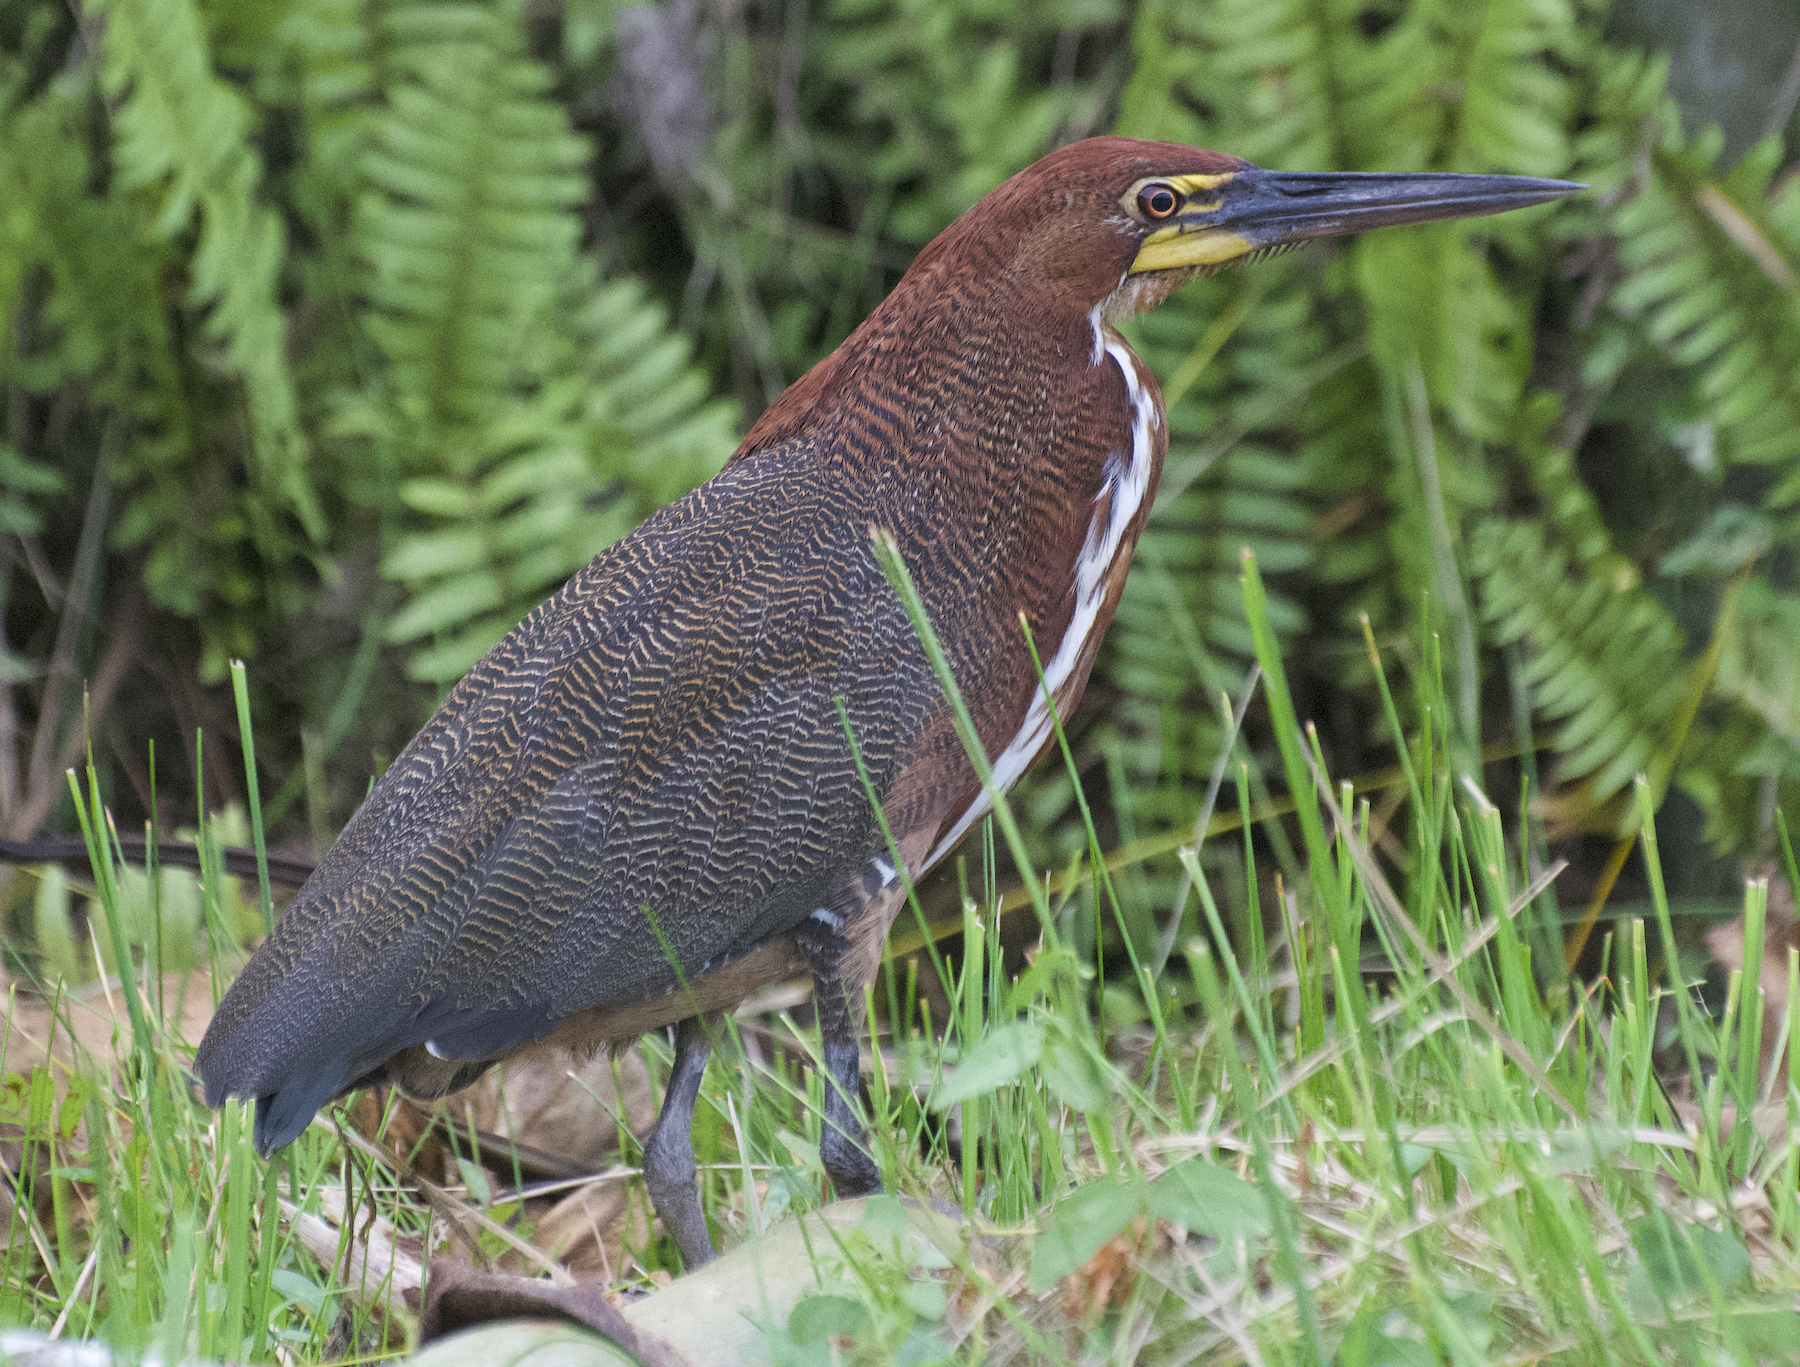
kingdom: Animalia
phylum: Chordata
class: Aves
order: Pelecaniformes
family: Ardeidae
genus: Tigrisoma
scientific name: Tigrisoma lineatum
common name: Rufescent tiger-heron
